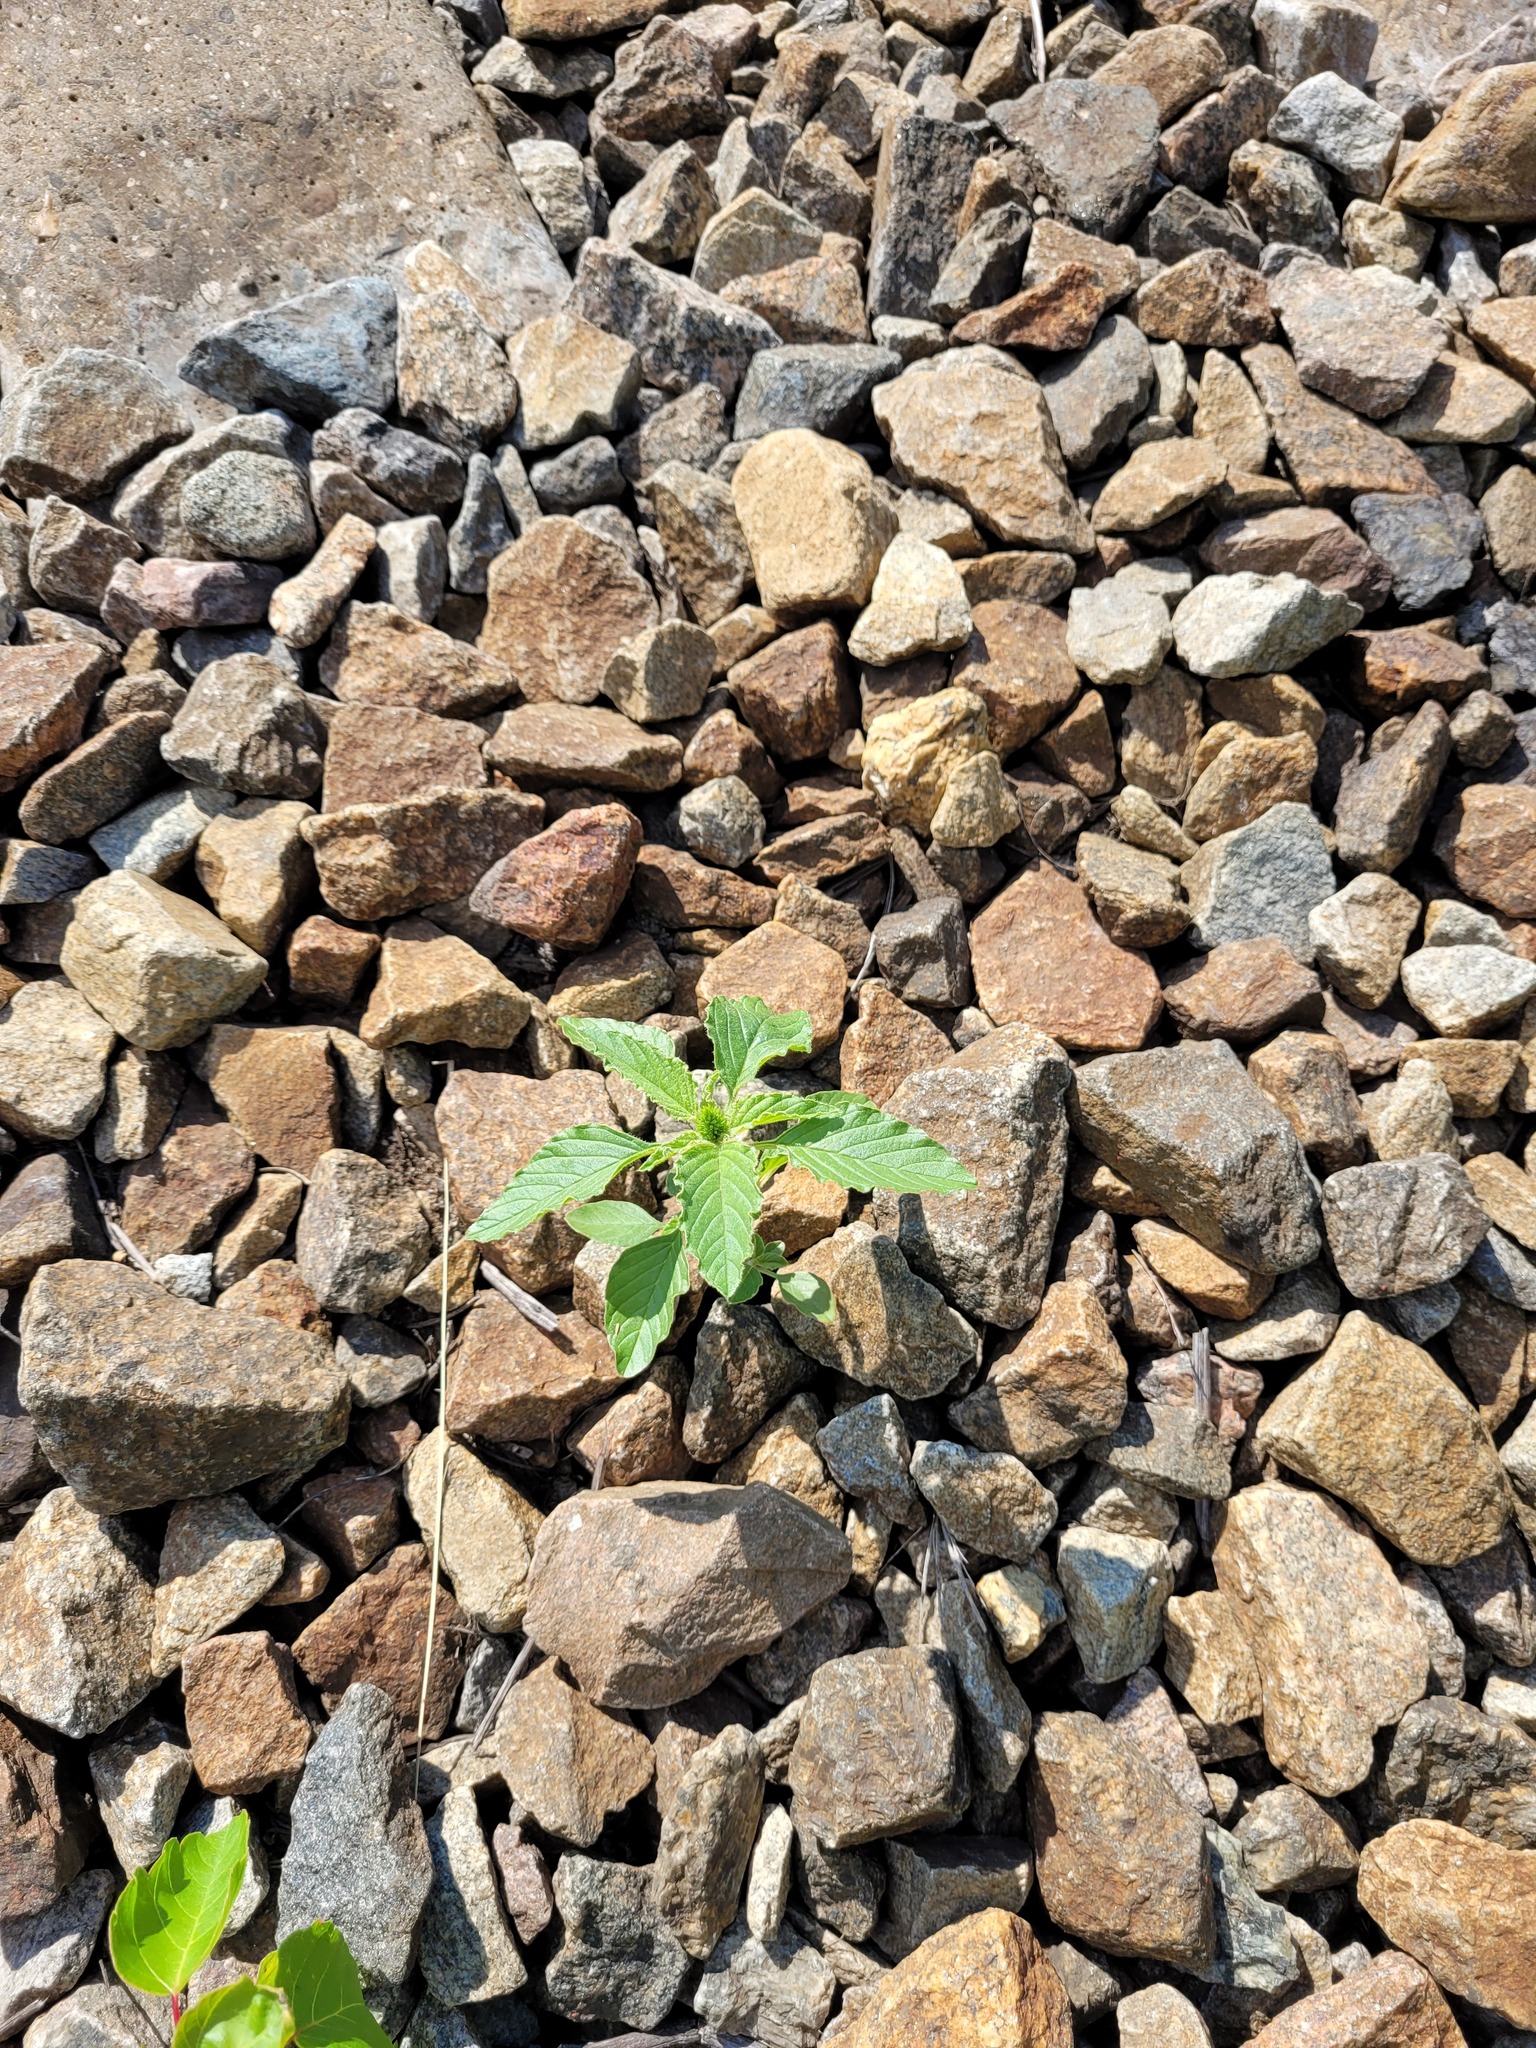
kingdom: Plantae
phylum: Tracheophyta
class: Magnoliopsida
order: Caryophyllales
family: Amaranthaceae
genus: Amaranthus
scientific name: Amaranthus retroflexus
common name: Redroot amaranth
